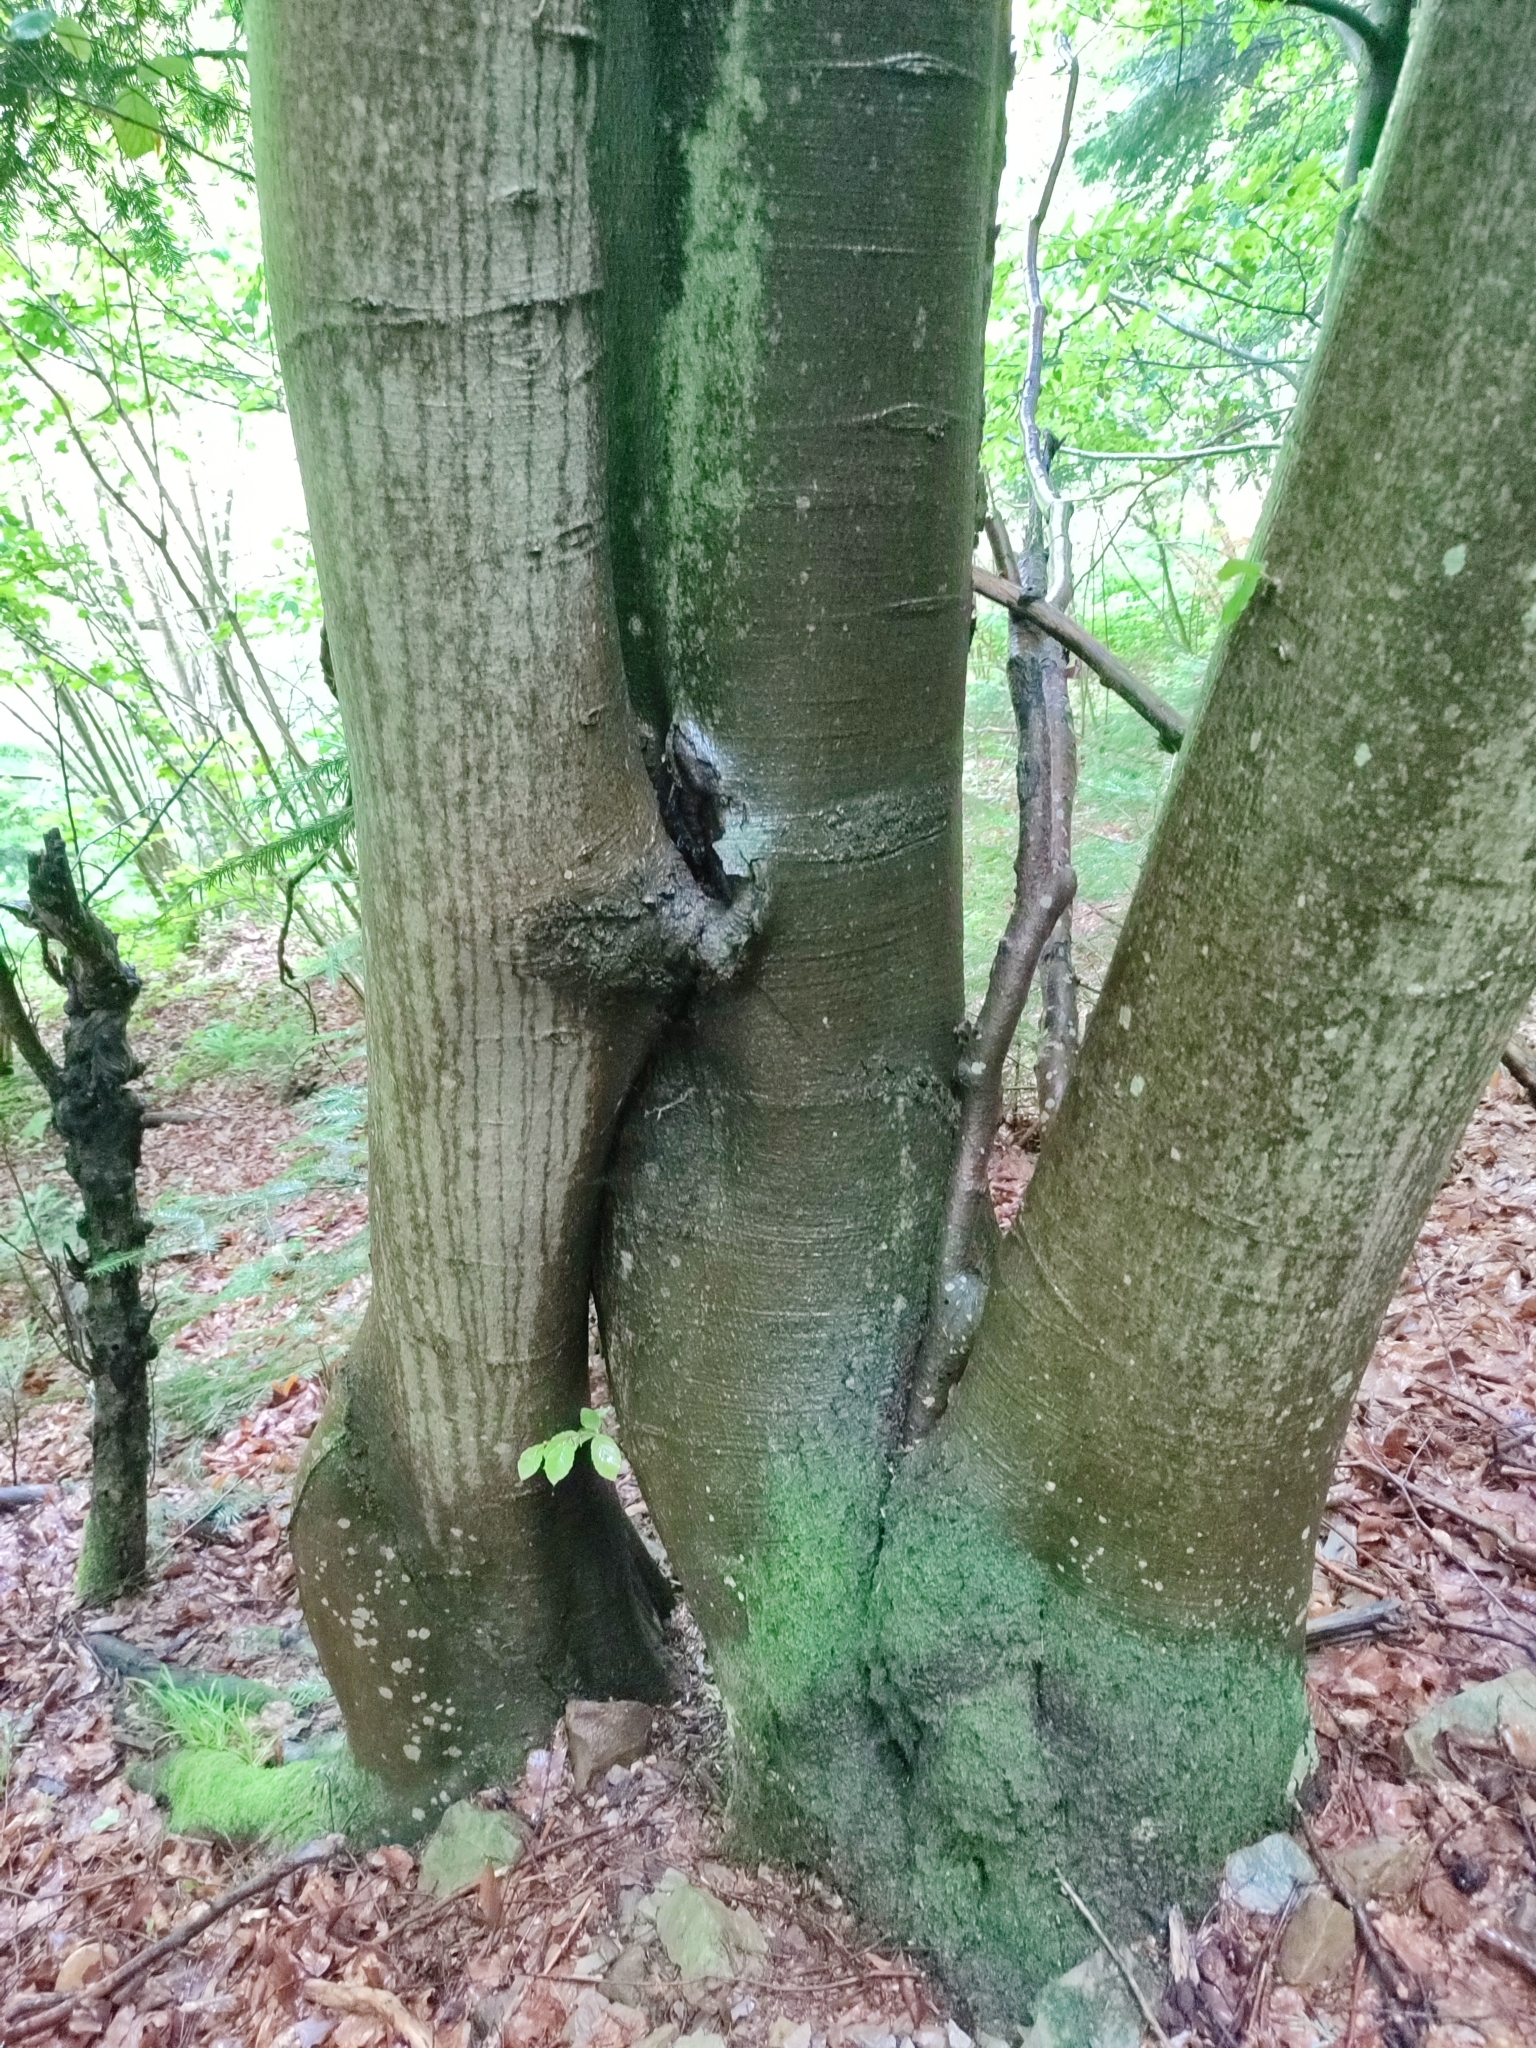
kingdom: Plantae
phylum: Tracheophyta
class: Magnoliopsida
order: Fagales
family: Fagaceae
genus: Fagus
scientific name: Fagus sylvatica
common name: Beech
